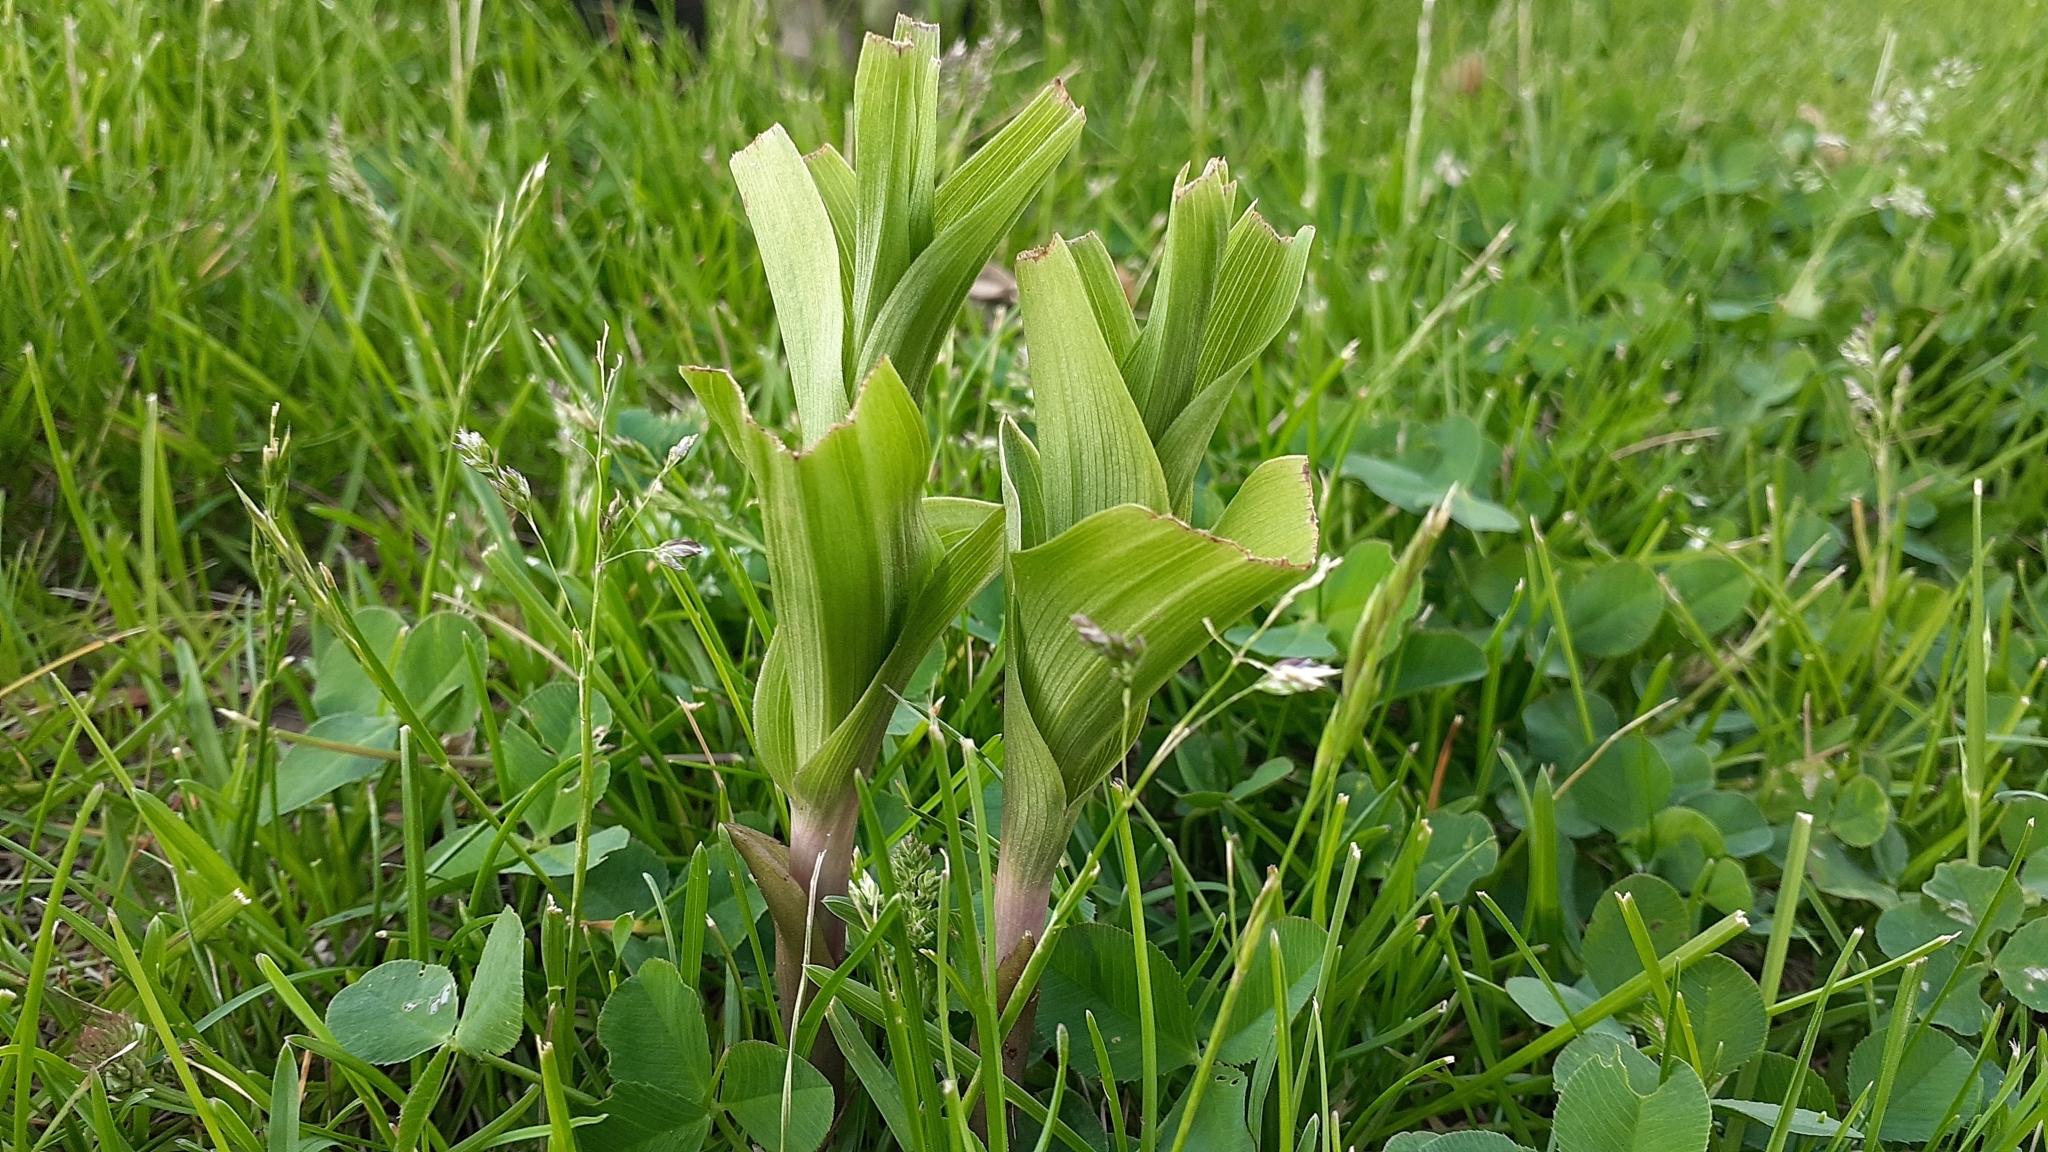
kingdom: Plantae
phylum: Tracheophyta
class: Liliopsida
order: Asparagales
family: Orchidaceae
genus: Epipactis
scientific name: Epipactis helleborine
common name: Broad-leaved helleborine
